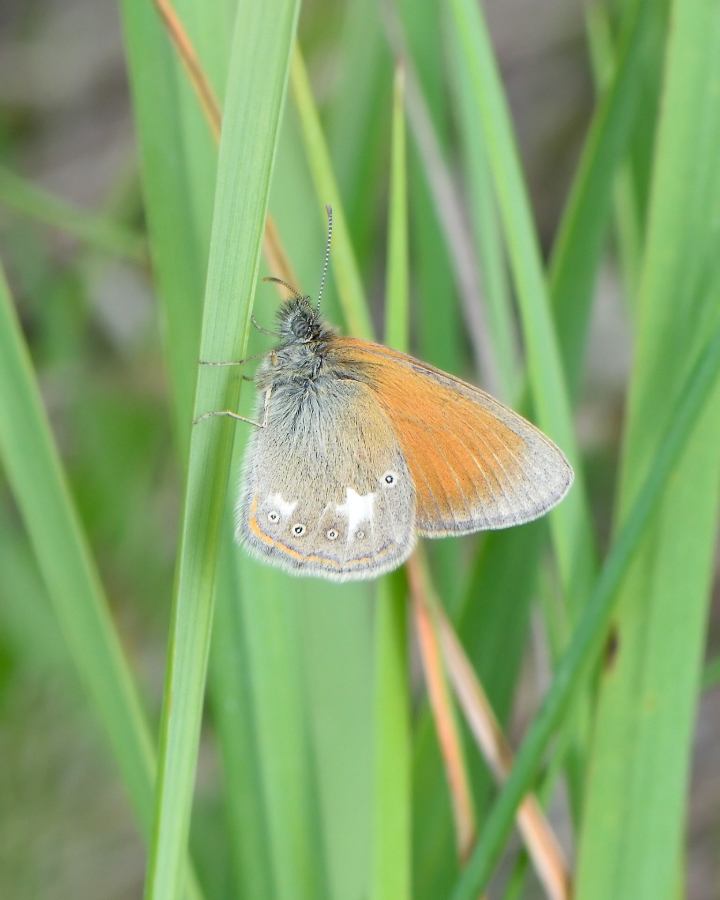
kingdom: Animalia
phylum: Arthropoda
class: Insecta
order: Lepidoptera
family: Nymphalidae
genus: Coenonympha
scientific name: Coenonympha iphis
